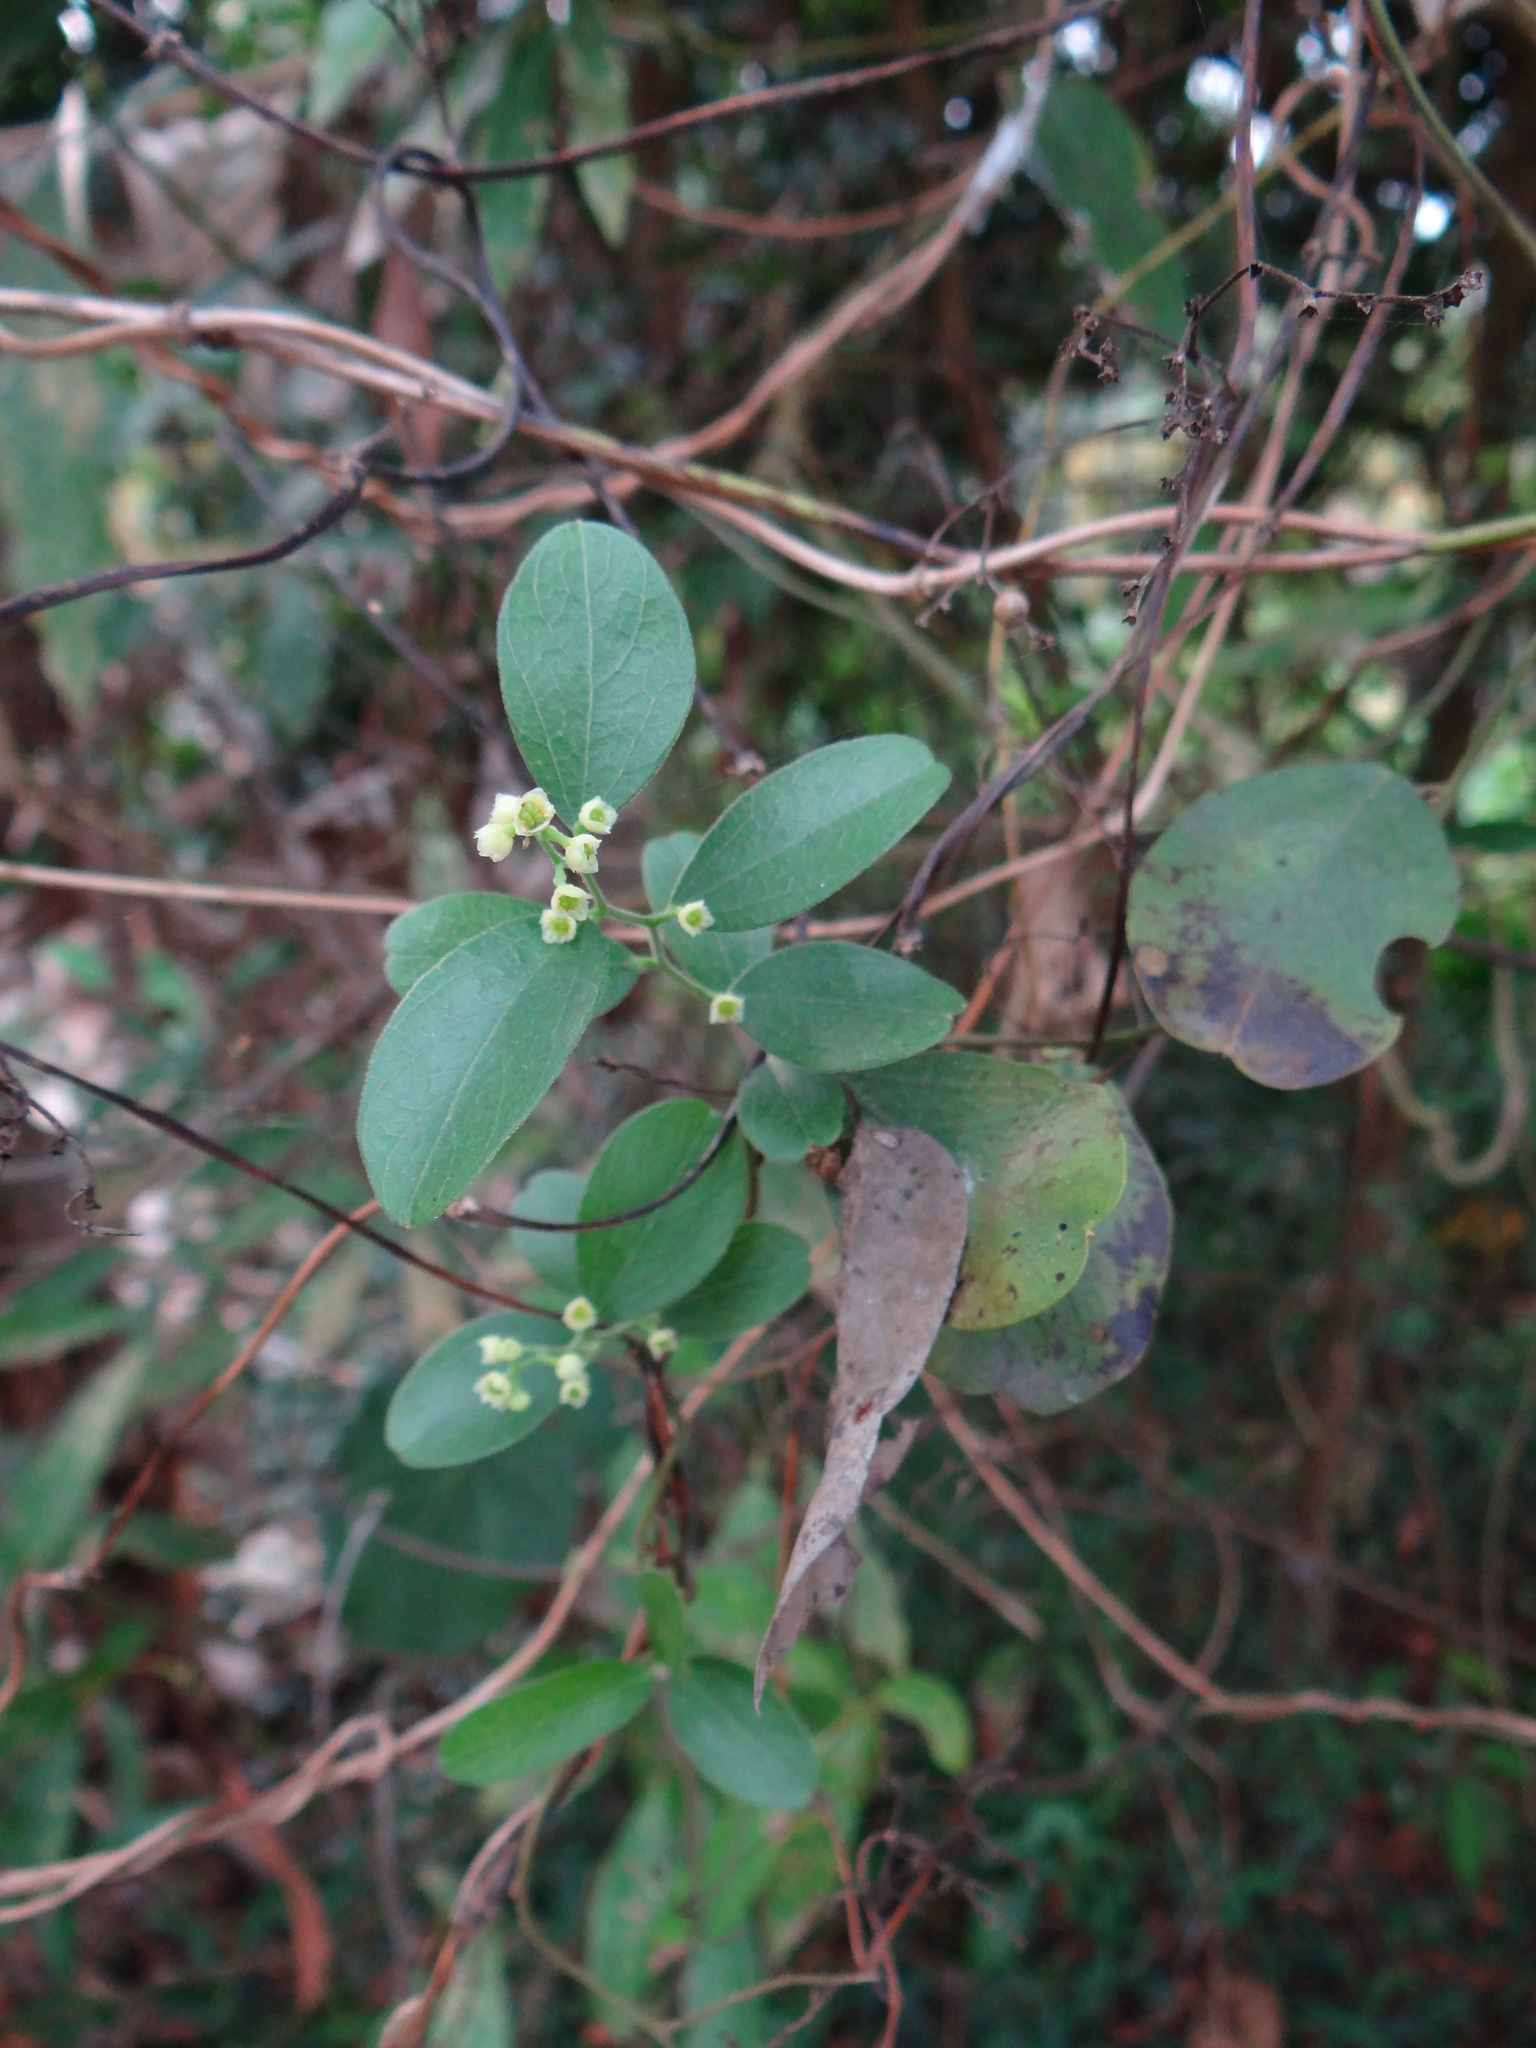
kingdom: Plantae
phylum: Tracheophyta
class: Magnoliopsida
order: Ranunculales
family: Menispermaceae
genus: Cocculus
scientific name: Cocculus orbiculatus
